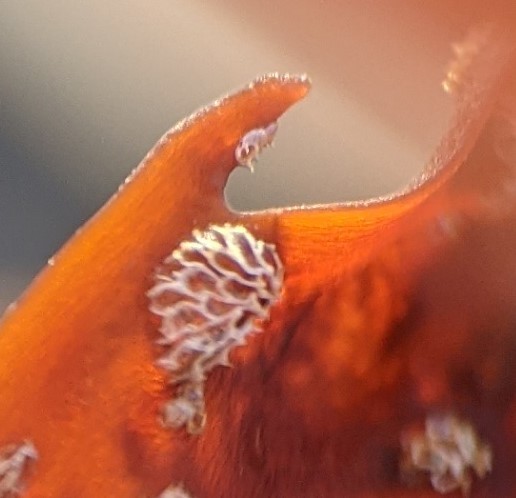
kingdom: Animalia
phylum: Bryozoa
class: Gymnolaemata
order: Cheilostomatida
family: Membraniporidae
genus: Membranipora
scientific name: Membranipora membranacea
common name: Sea mat
